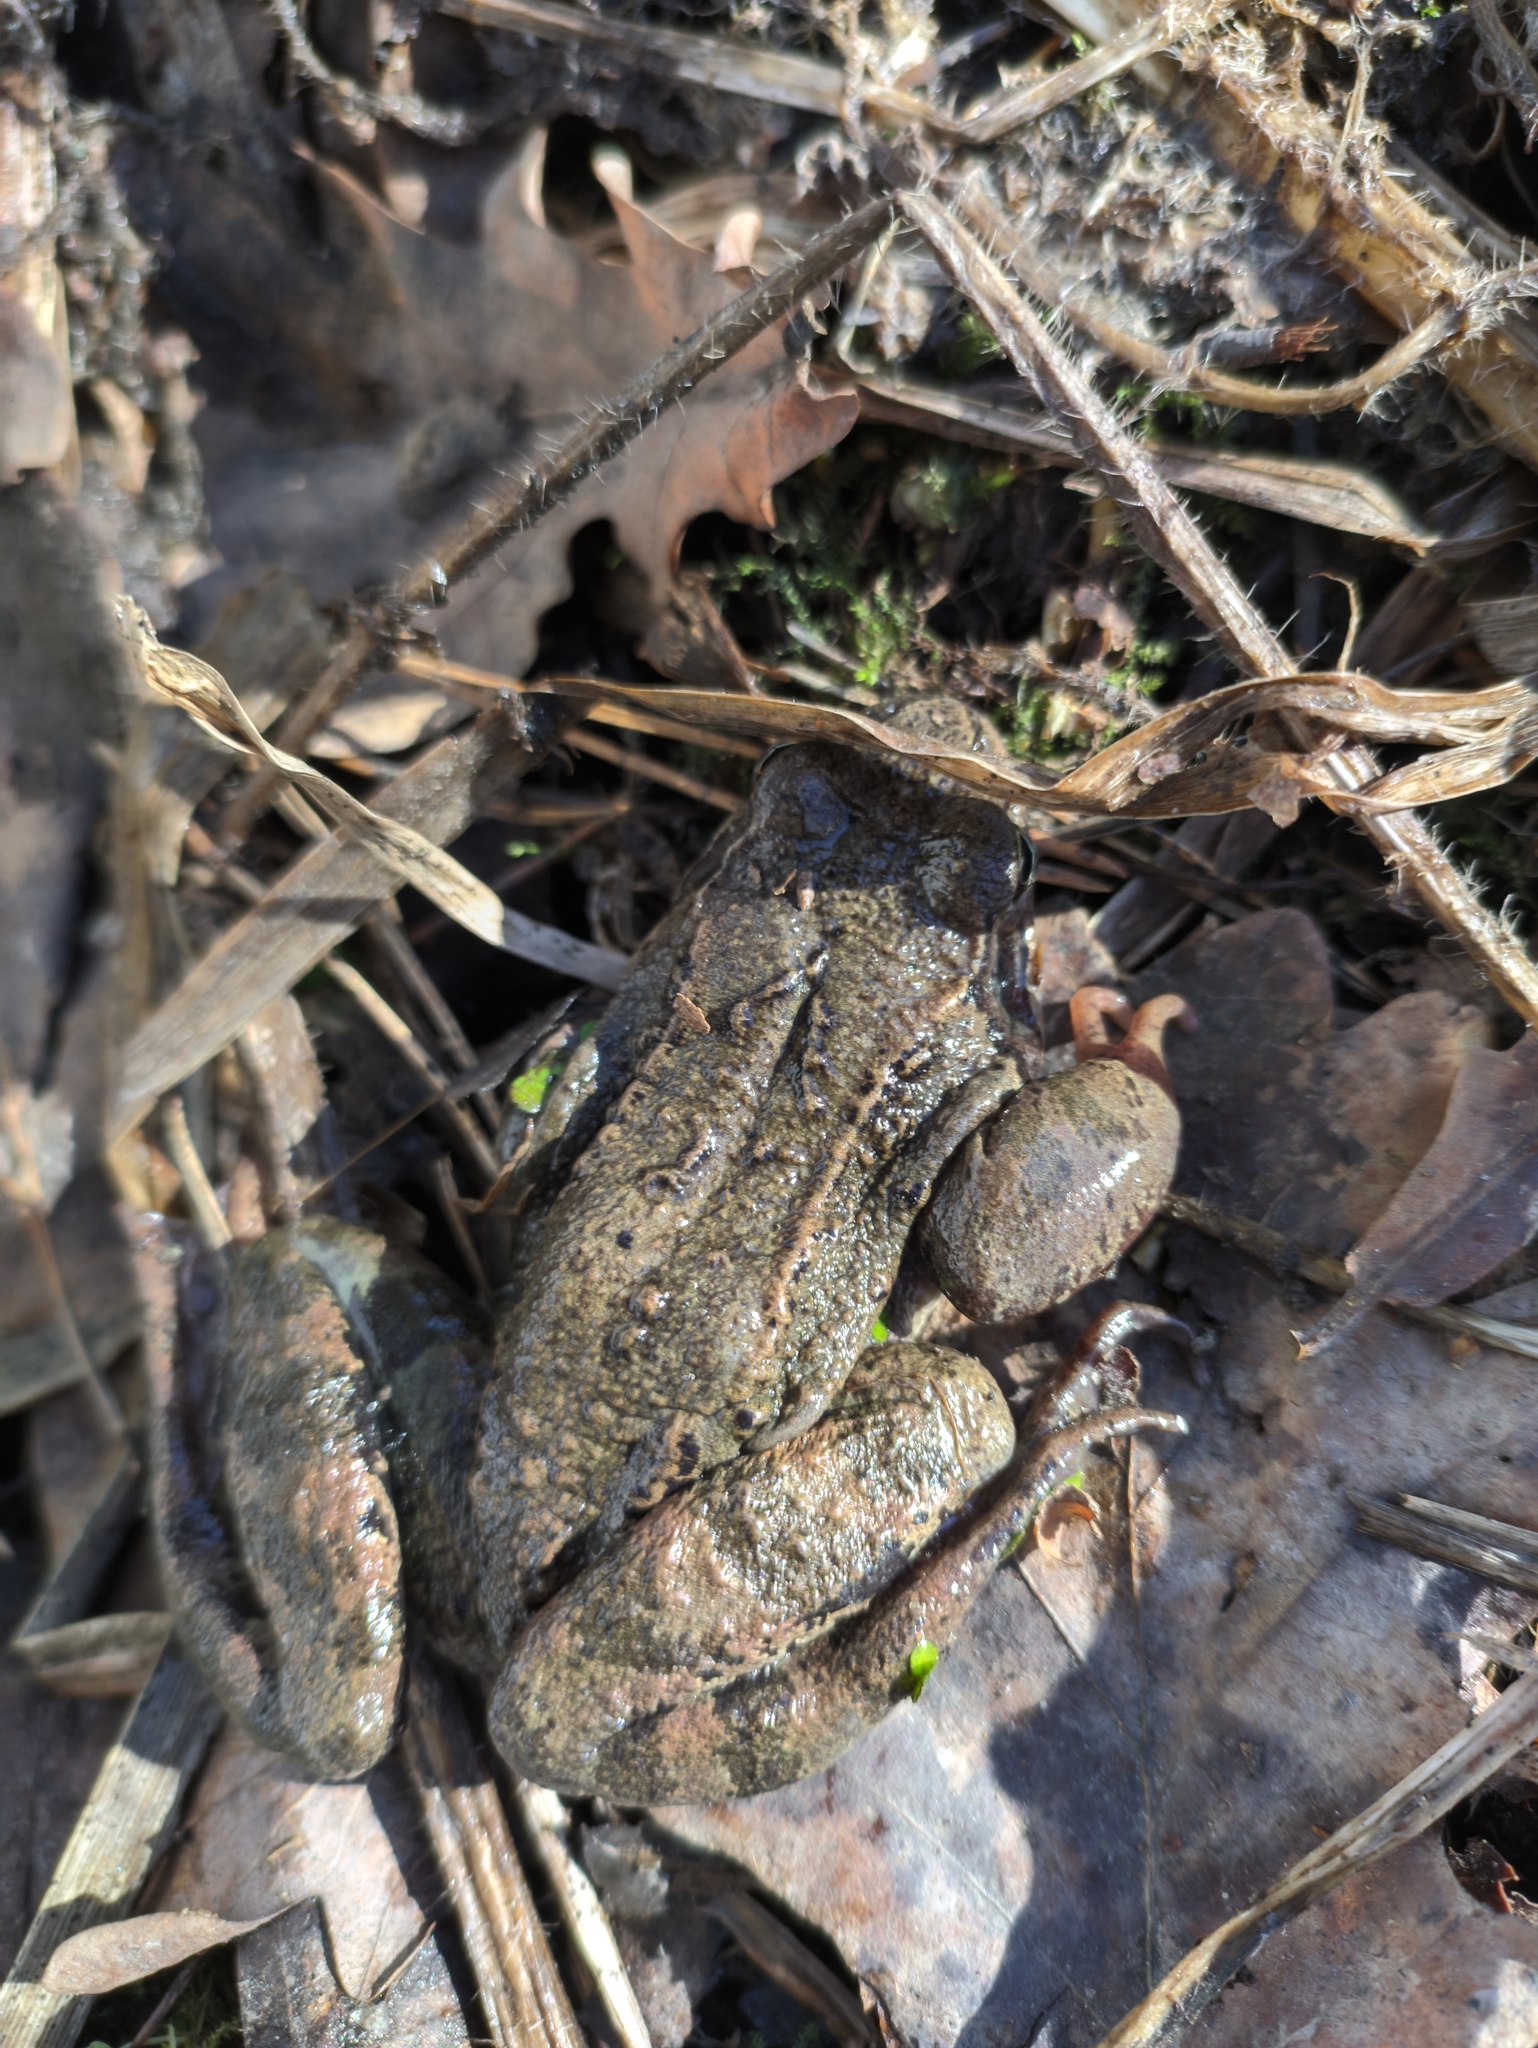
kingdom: Animalia
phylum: Chordata
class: Amphibia
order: Anura
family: Ranidae
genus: Rana
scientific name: Rana temporaria
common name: Common frog
